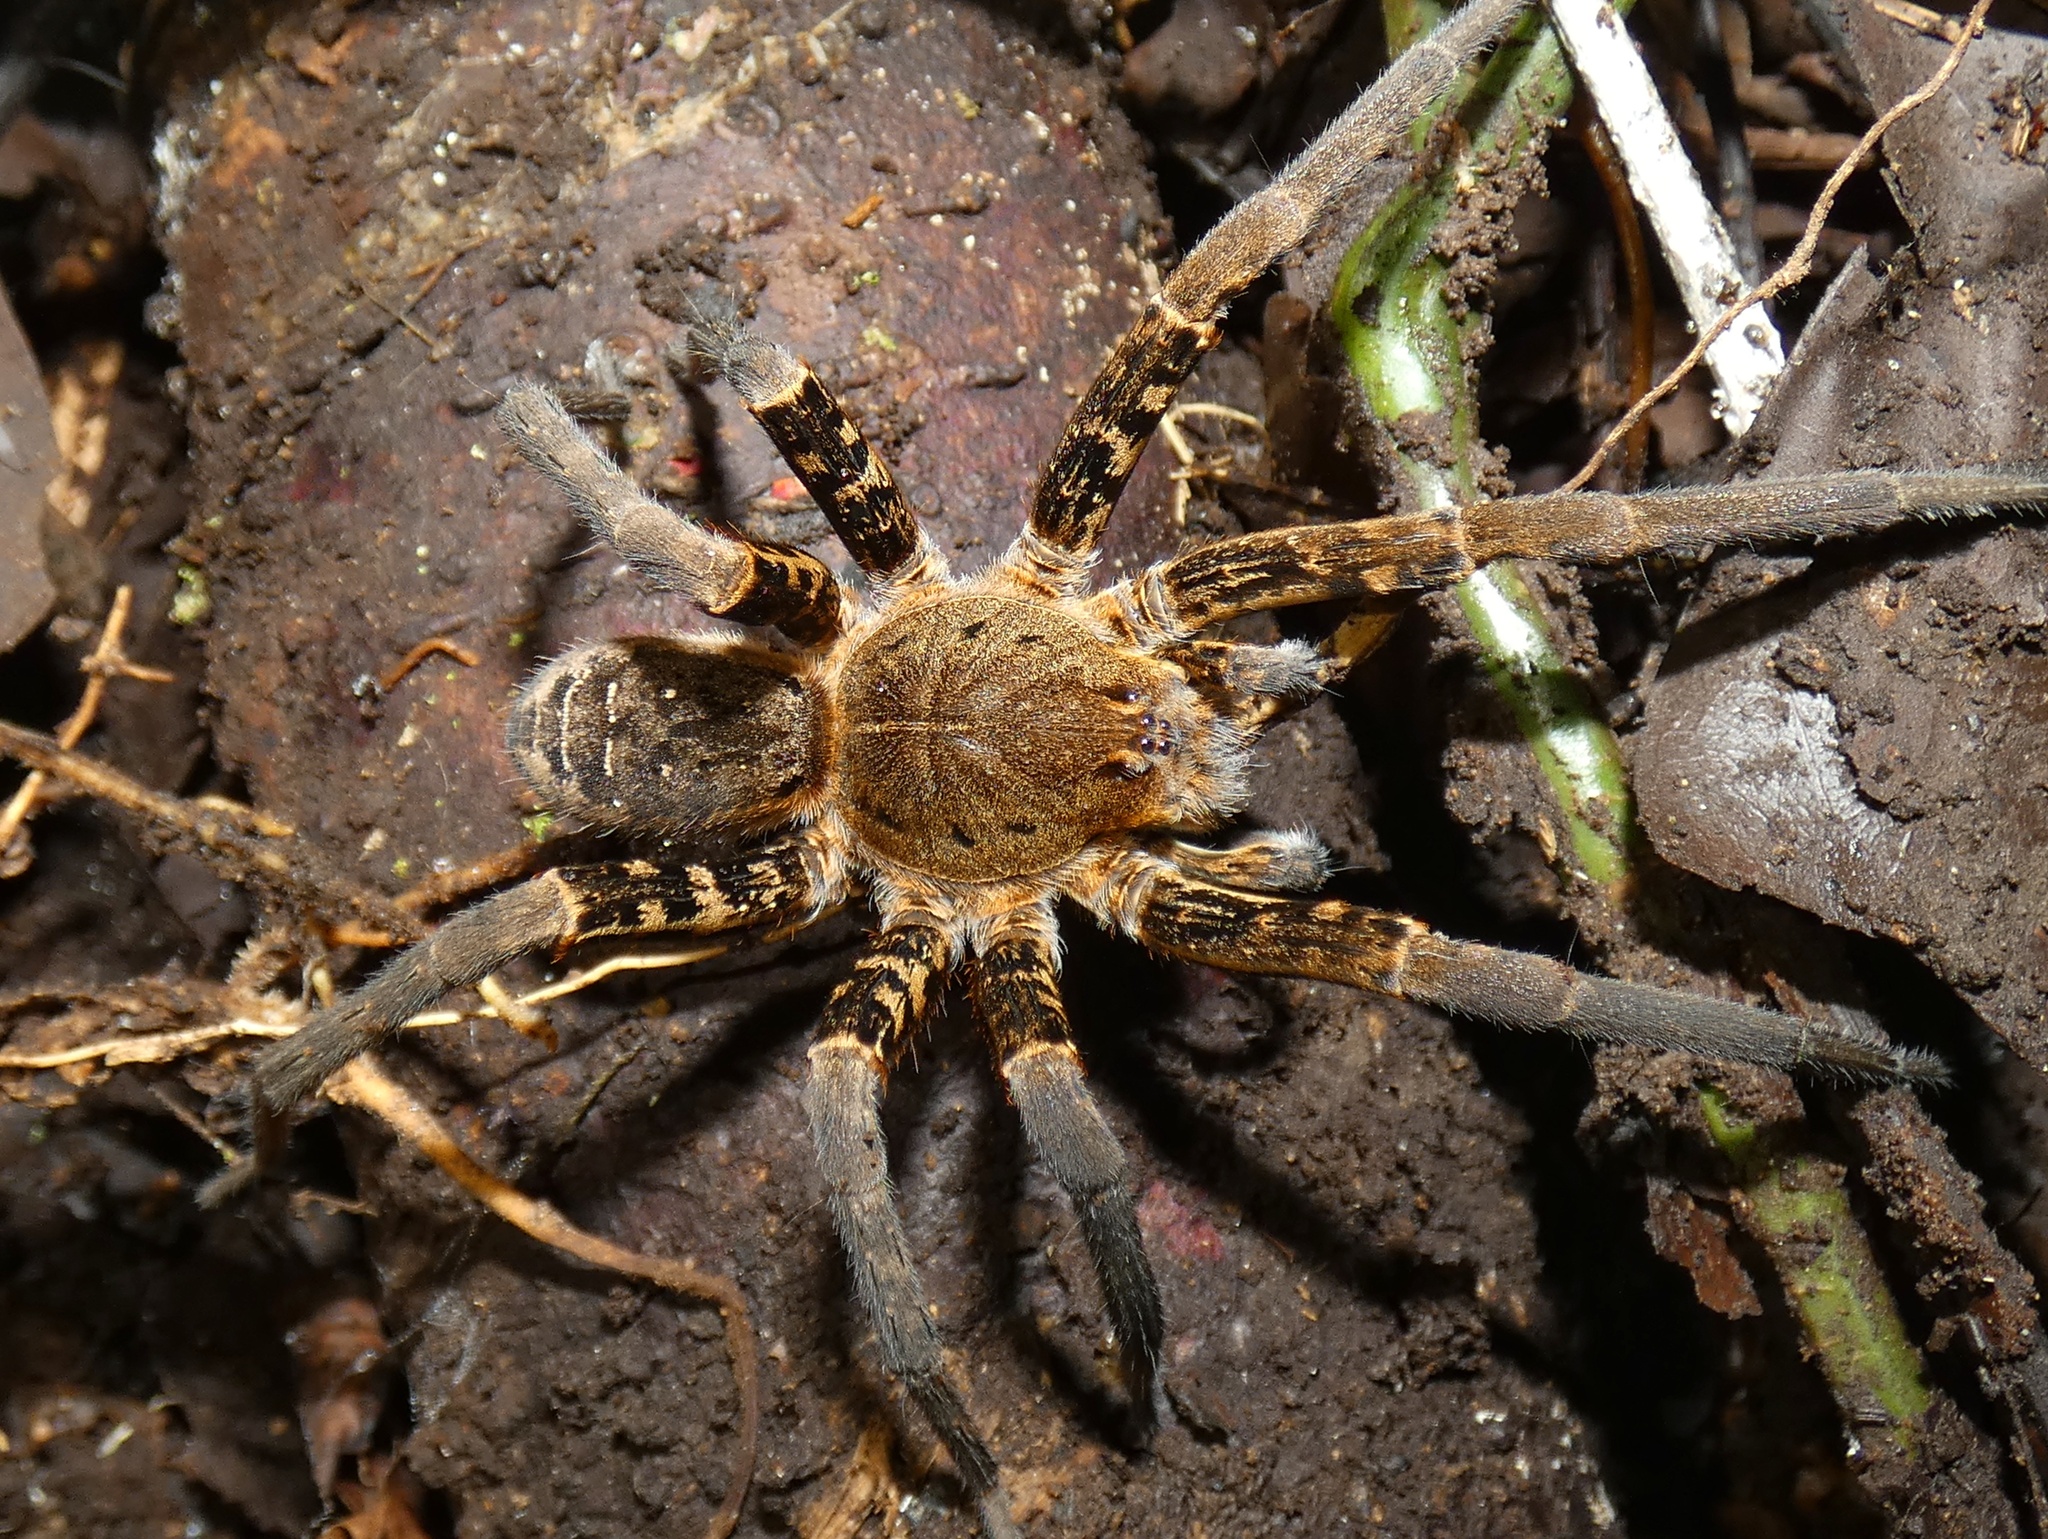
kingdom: Animalia
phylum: Arthropoda
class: Arachnida
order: Araneae
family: Ctenidae
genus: Ancylometes
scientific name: Ancylometes bogotensis
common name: Wandering spiders
